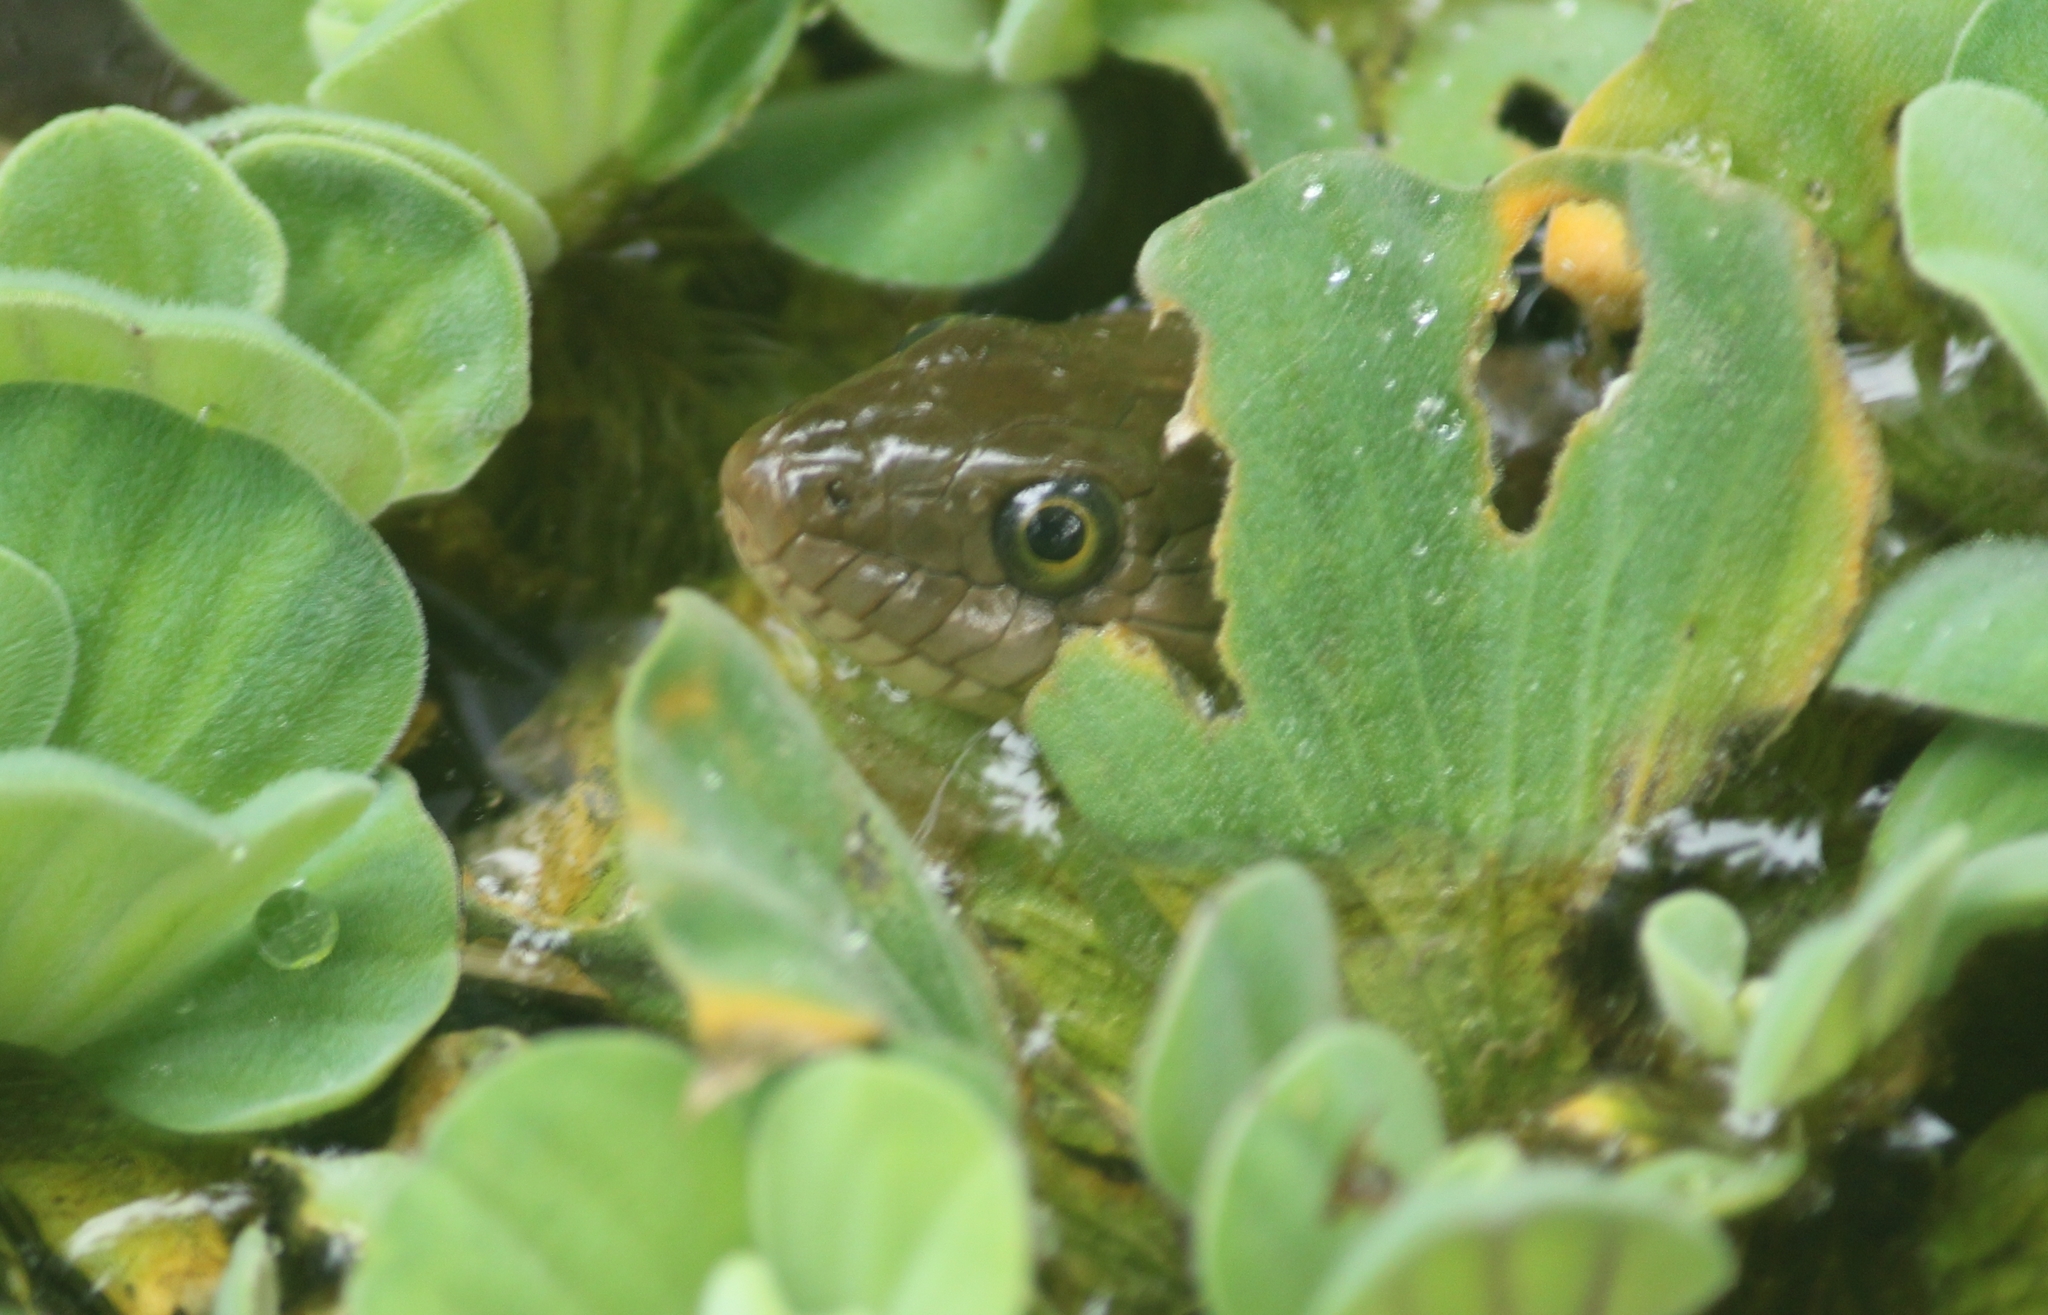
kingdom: Animalia
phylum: Chordata
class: Squamata
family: Colubridae
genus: Fowlea
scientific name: Fowlea piscator
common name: Asiatic water snake
